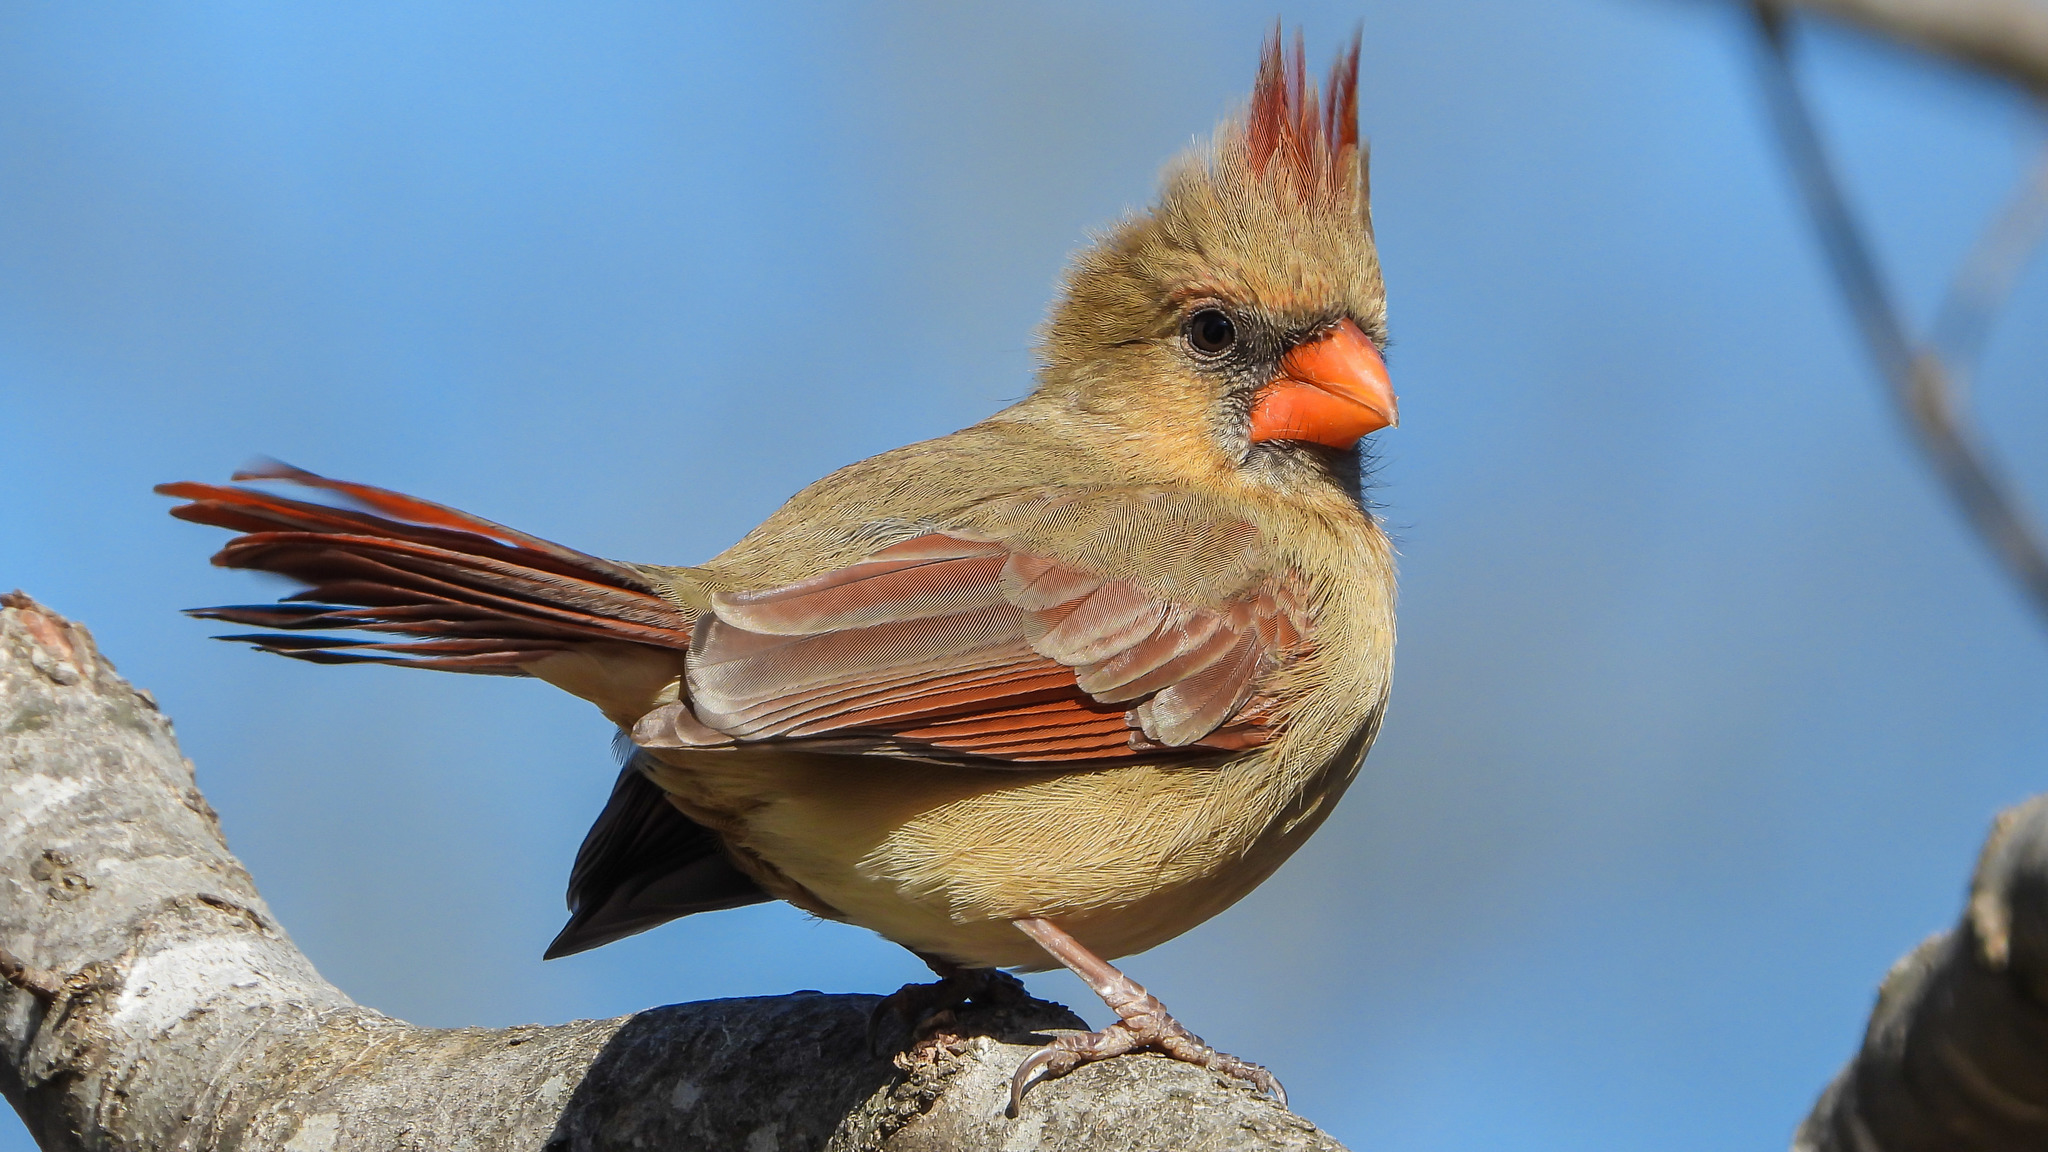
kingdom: Animalia
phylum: Chordata
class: Aves
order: Passeriformes
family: Cardinalidae
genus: Cardinalis
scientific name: Cardinalis cardinalis
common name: Northern cardinal
